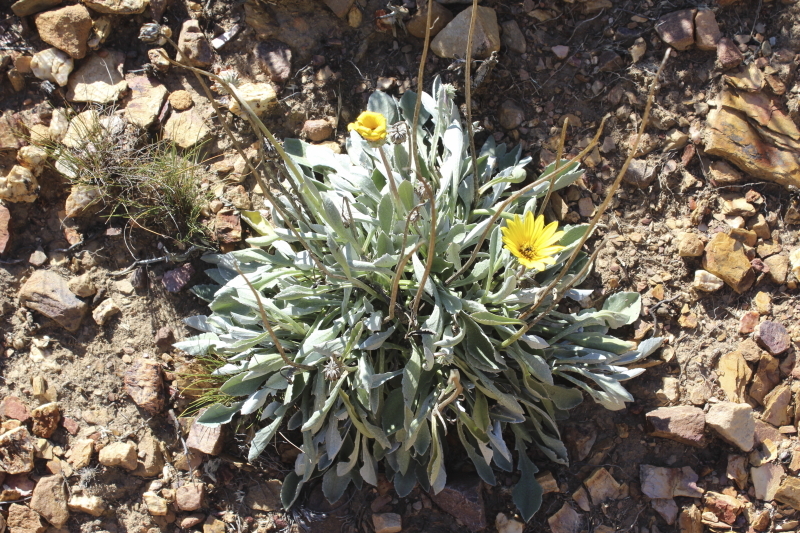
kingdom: Plantae
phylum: Tracheophyta
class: Magnoliopsida
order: Asterales
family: Asteraceae
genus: Arctotis
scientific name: Arctotis linearis
